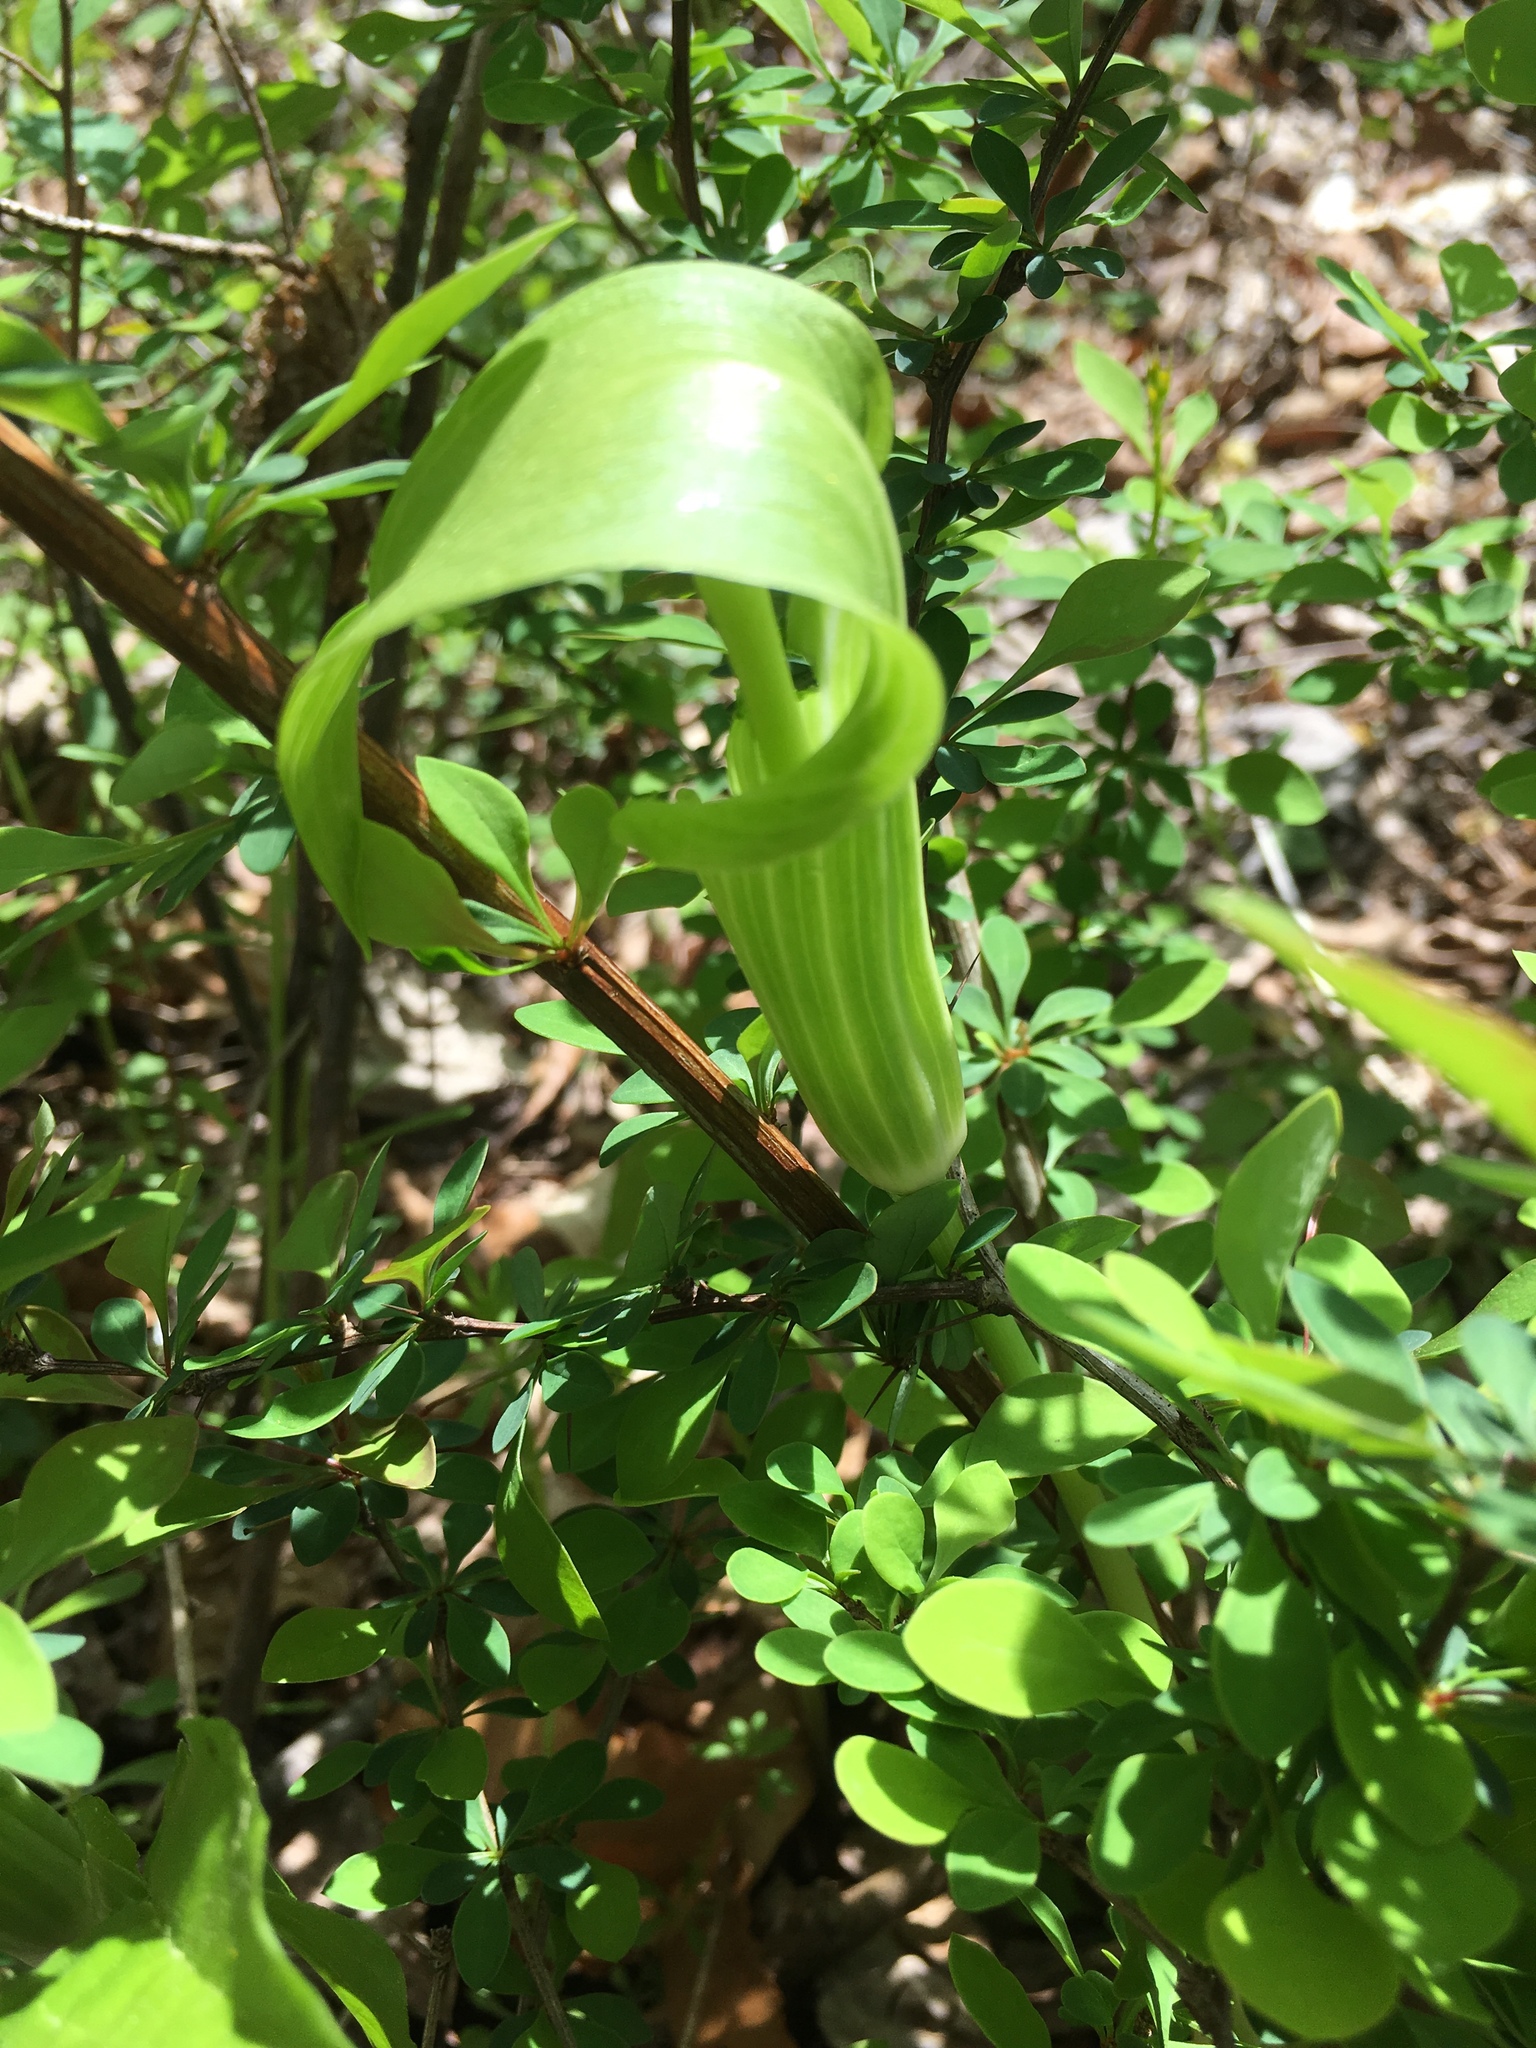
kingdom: Plantae
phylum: Tracheophyta
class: Liliopsida
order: Alismatales
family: Araceae
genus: Arisaema
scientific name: Arisaema triphyllum
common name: Jack-in-the-pulpit
